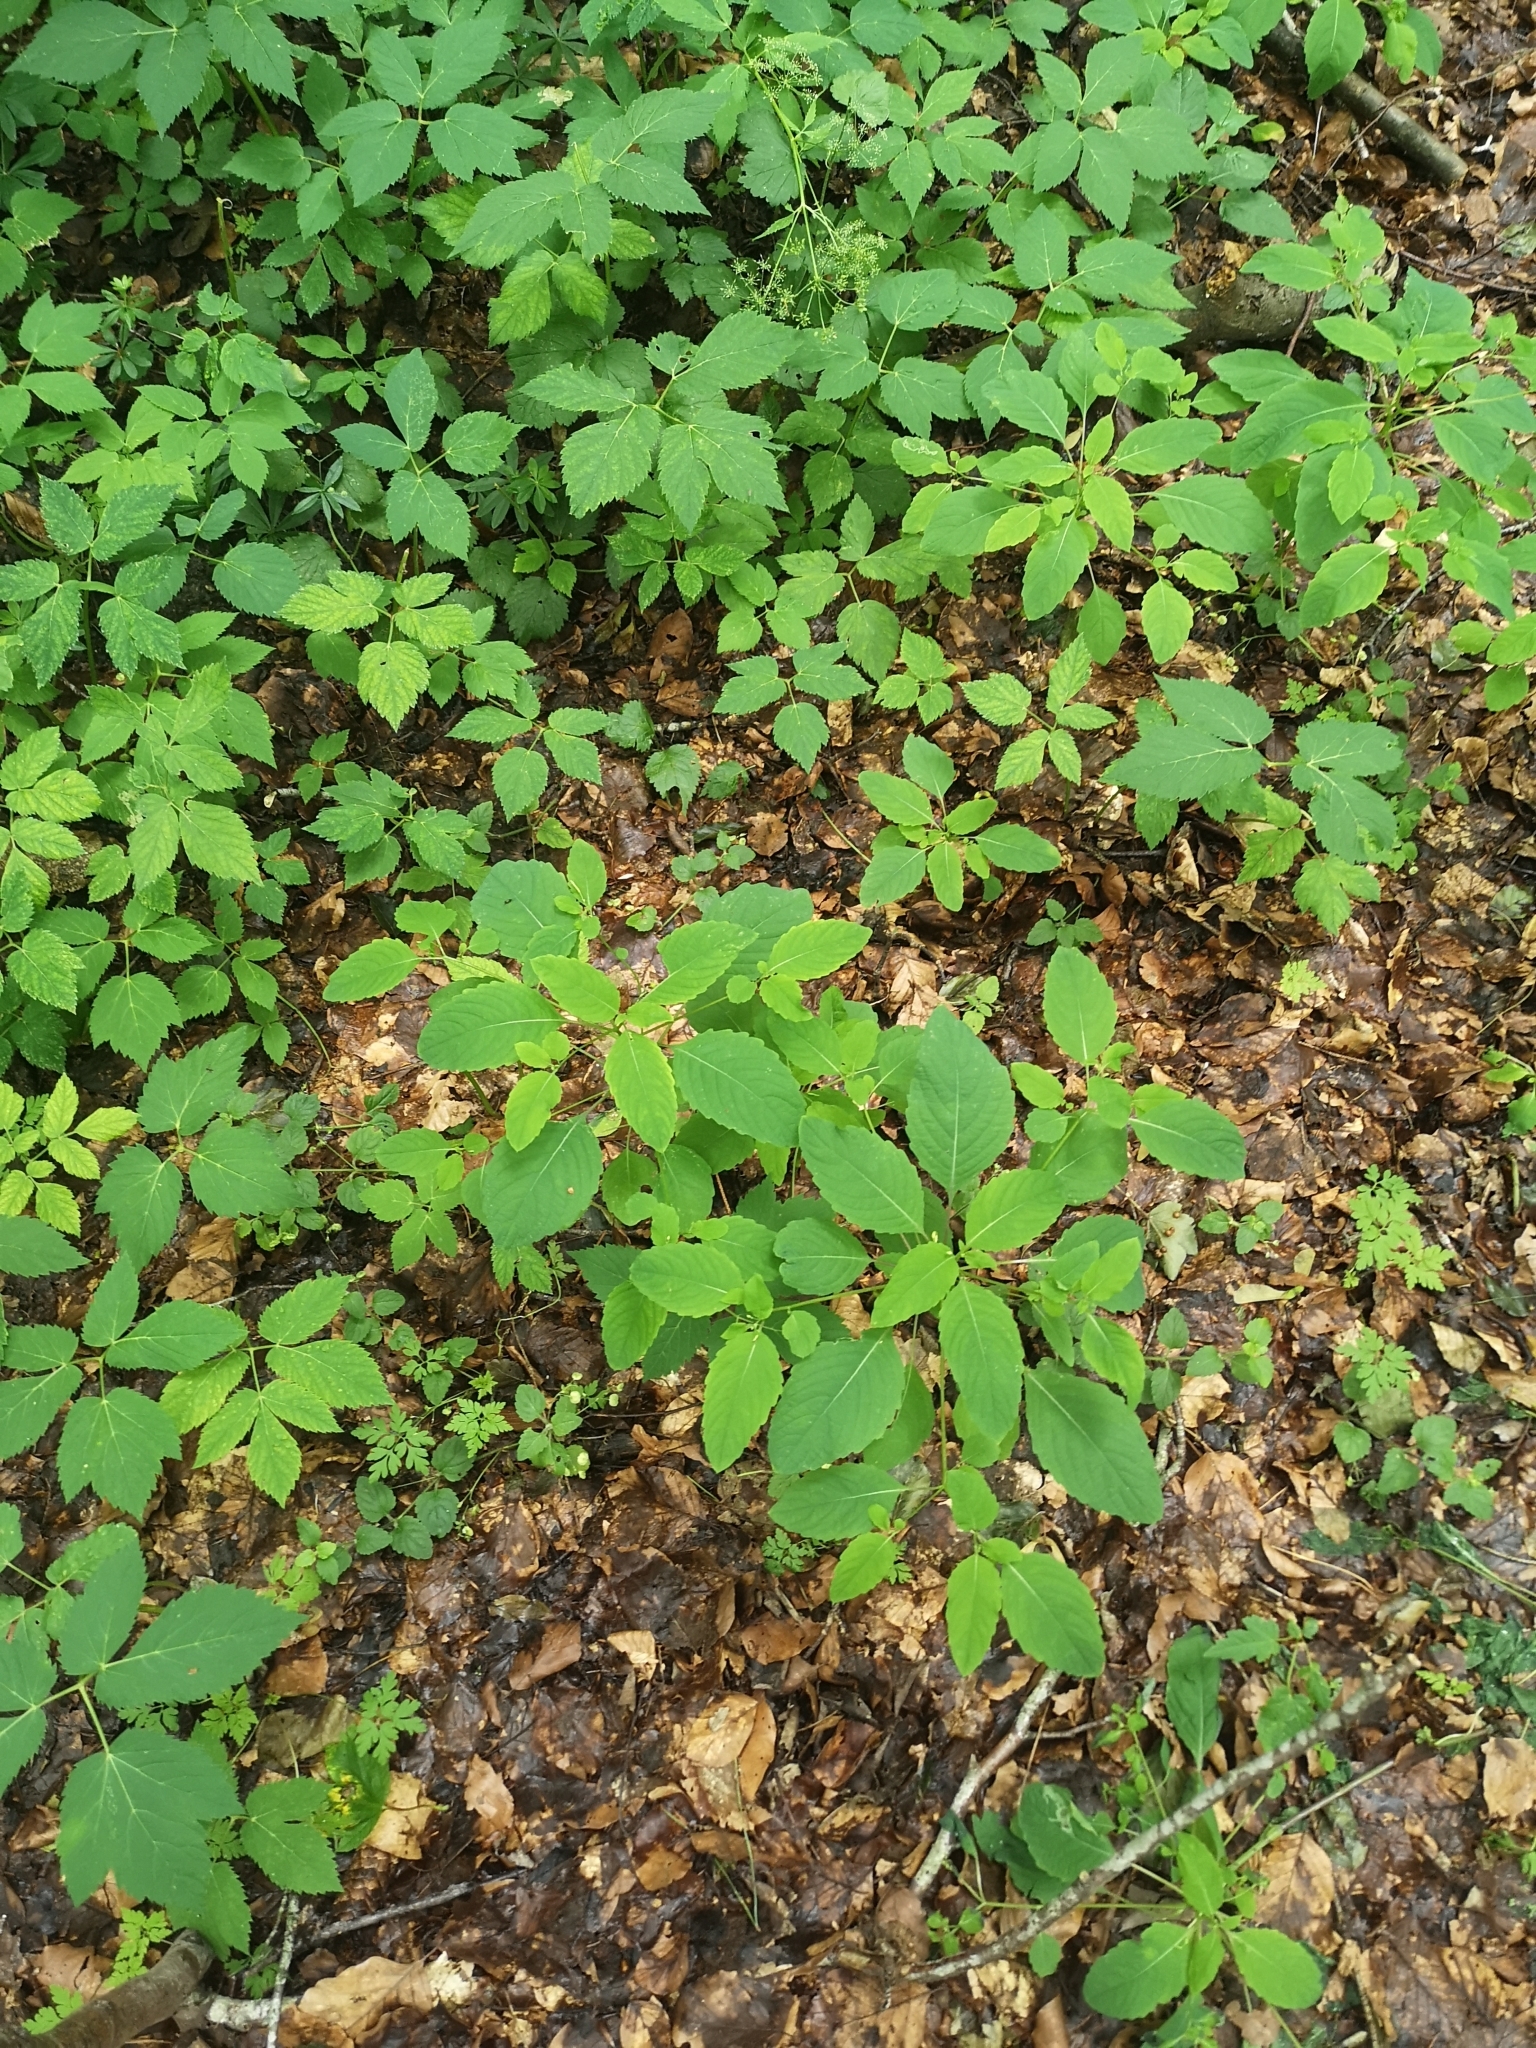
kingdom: Plantae
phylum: Tracheophyta
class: Magnoliopsida
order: Ericales
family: Balsaminaceae
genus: Impatiens
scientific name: Impatiens noli-tangere
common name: Touch-me-not balsam
